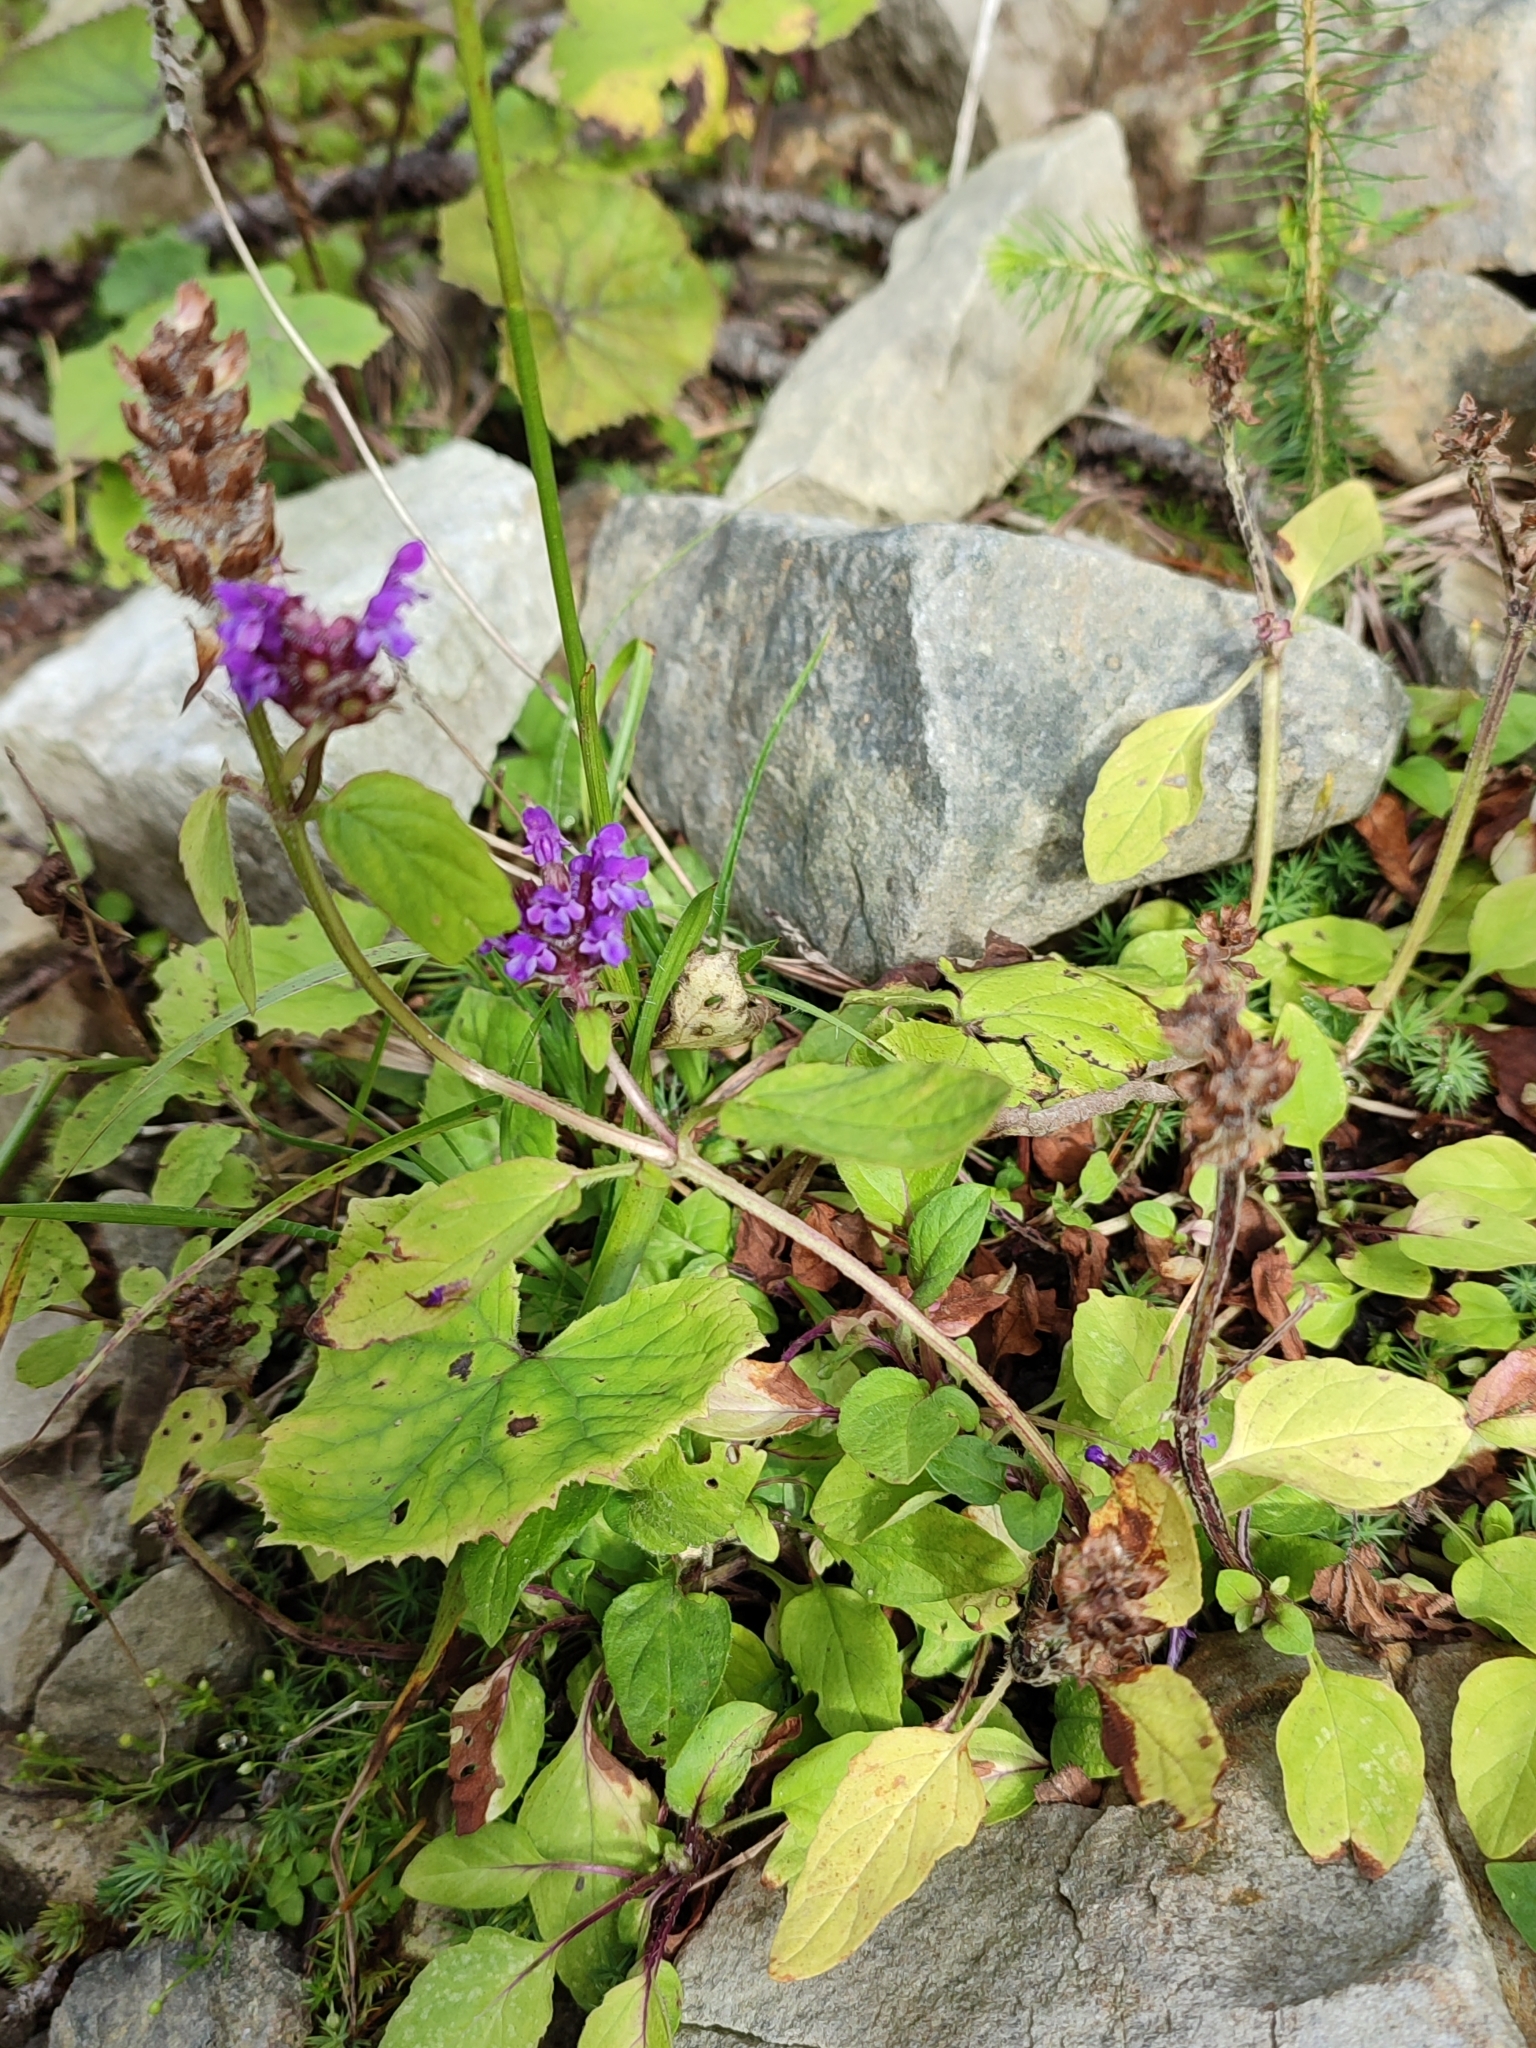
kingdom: Plantae
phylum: Tracheophyta
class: Magnoliopsida
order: Lamiales
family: Lamiaceae
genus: Prunella
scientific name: Prunella vulgaris
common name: Heal-all
